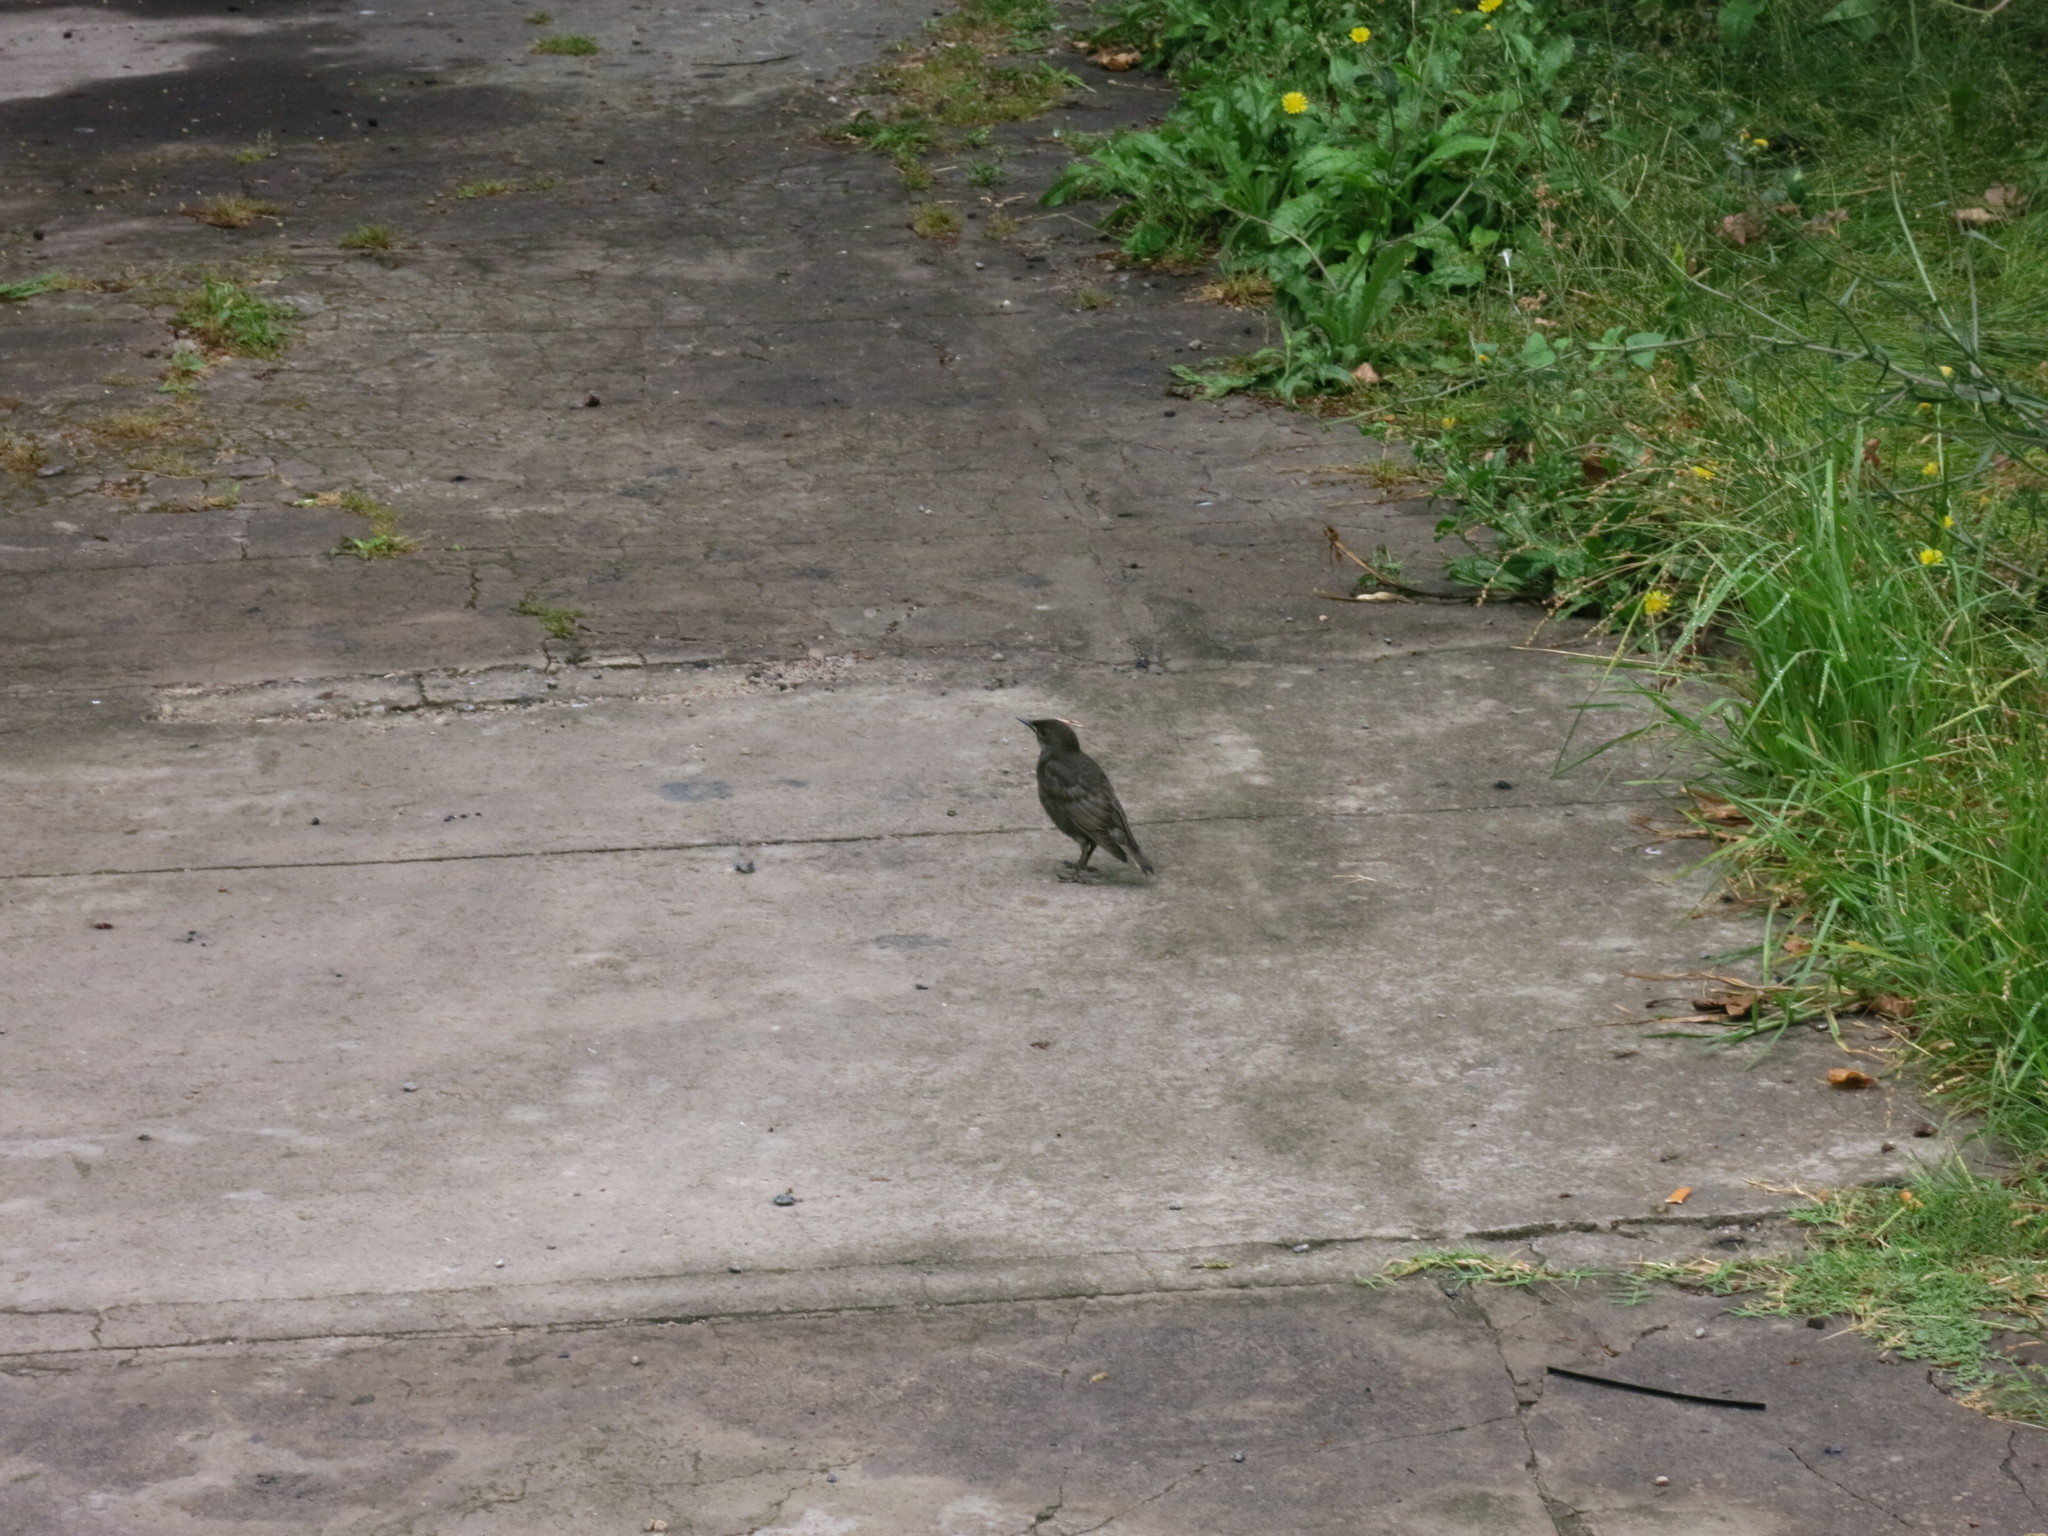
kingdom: Animalia
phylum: Chordata
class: Aves
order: Passeriformes
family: Turdidae
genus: Turdus
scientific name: Turdus rufiventris
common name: Rufous-bellied thrush
